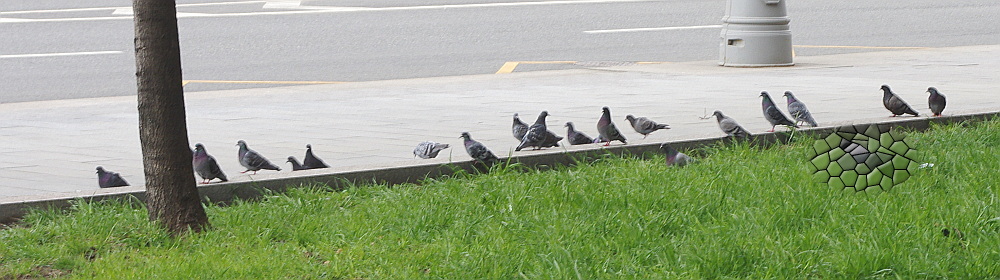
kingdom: Animalia
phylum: Chordata
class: Aves
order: Columbiformes
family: Columbidae
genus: Columba
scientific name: Columba livia
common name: Rock pigeon
